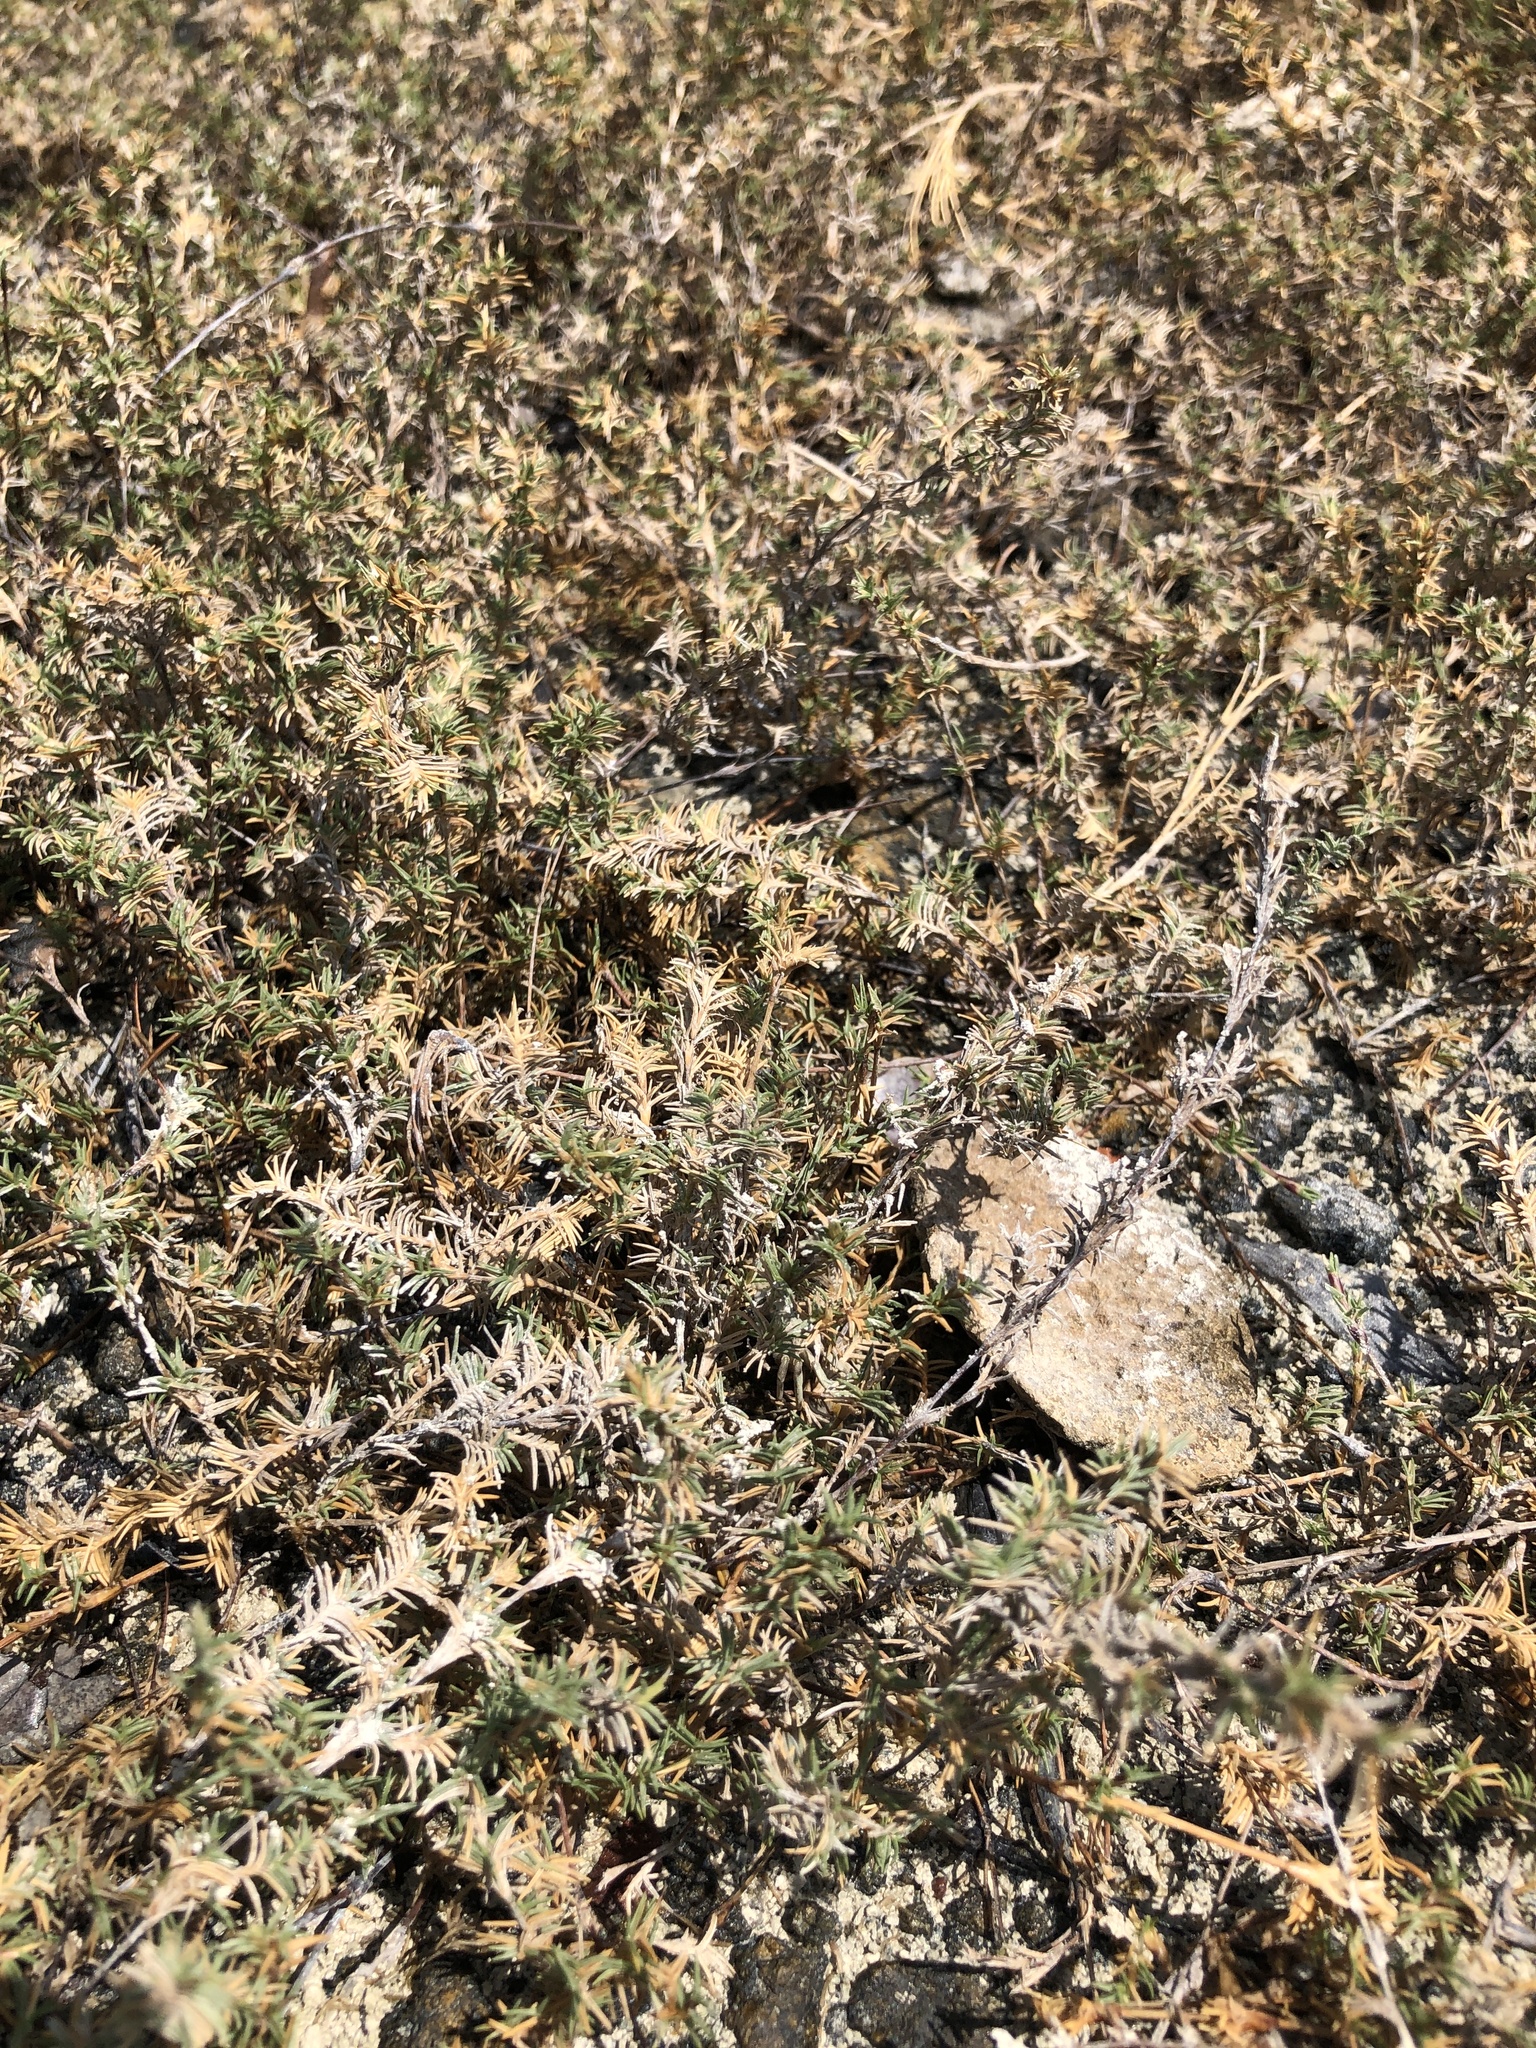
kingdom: Plantae
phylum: Tracheophyta
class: Liliopsida
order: Poales
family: Poaceae
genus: Distichlis
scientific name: Distichlis littoralis
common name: Shore grass
